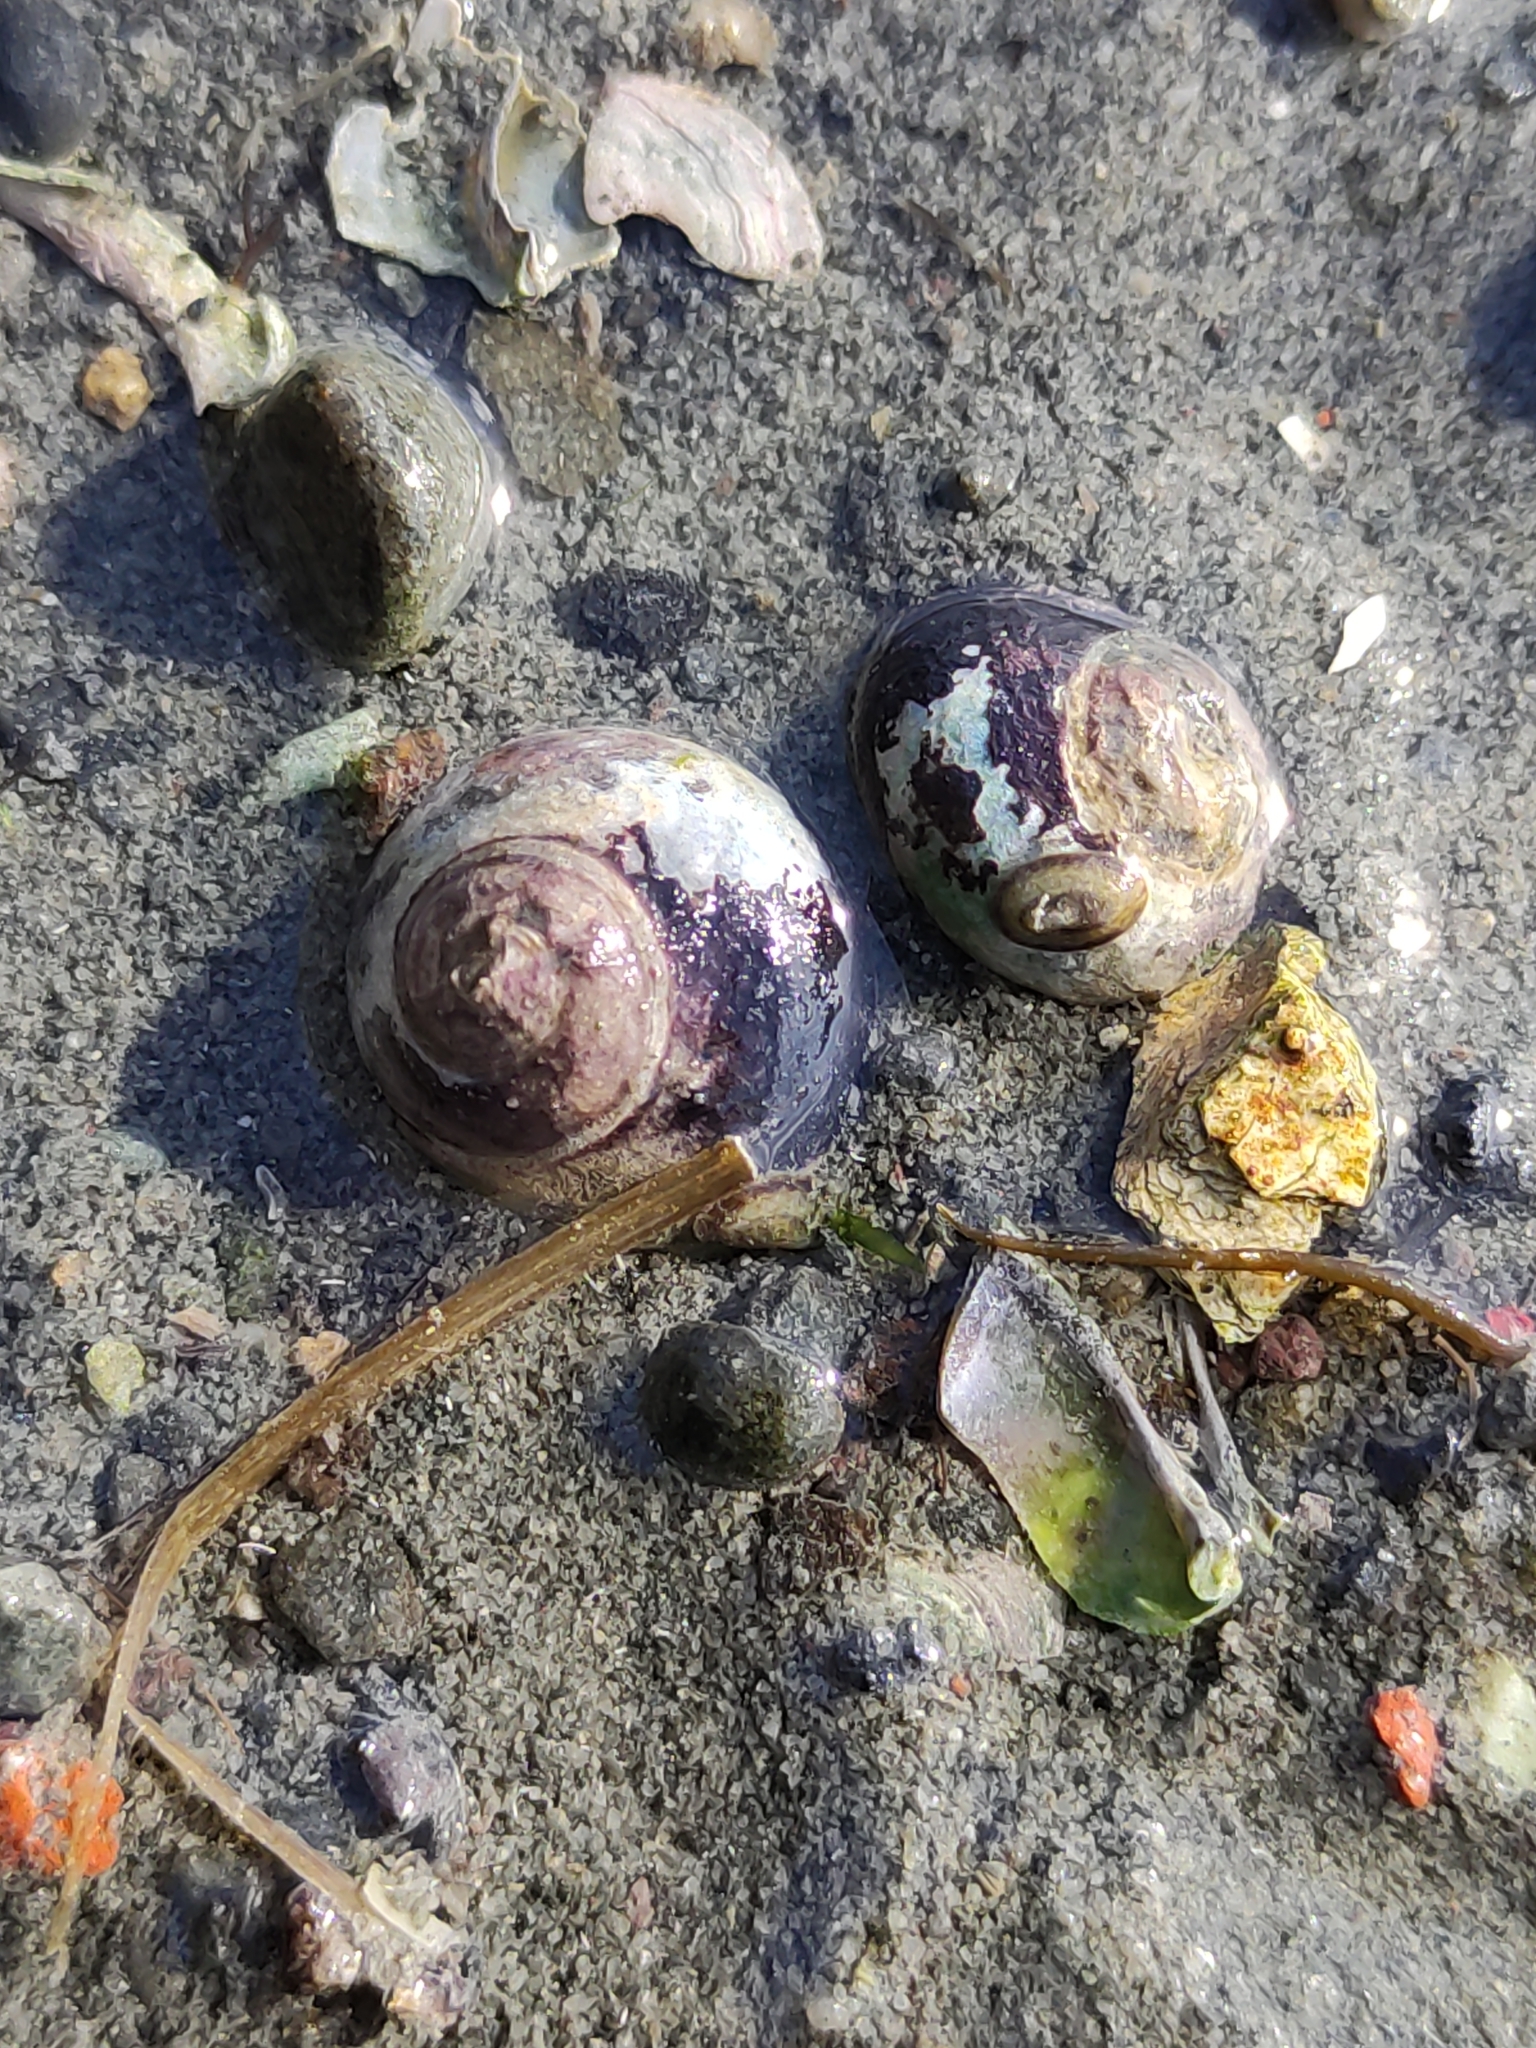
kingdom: Animalia
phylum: Mollusca
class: Gastropoda
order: Trochida
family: Trochidae
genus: Diloma
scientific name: Diloma subrostratum
